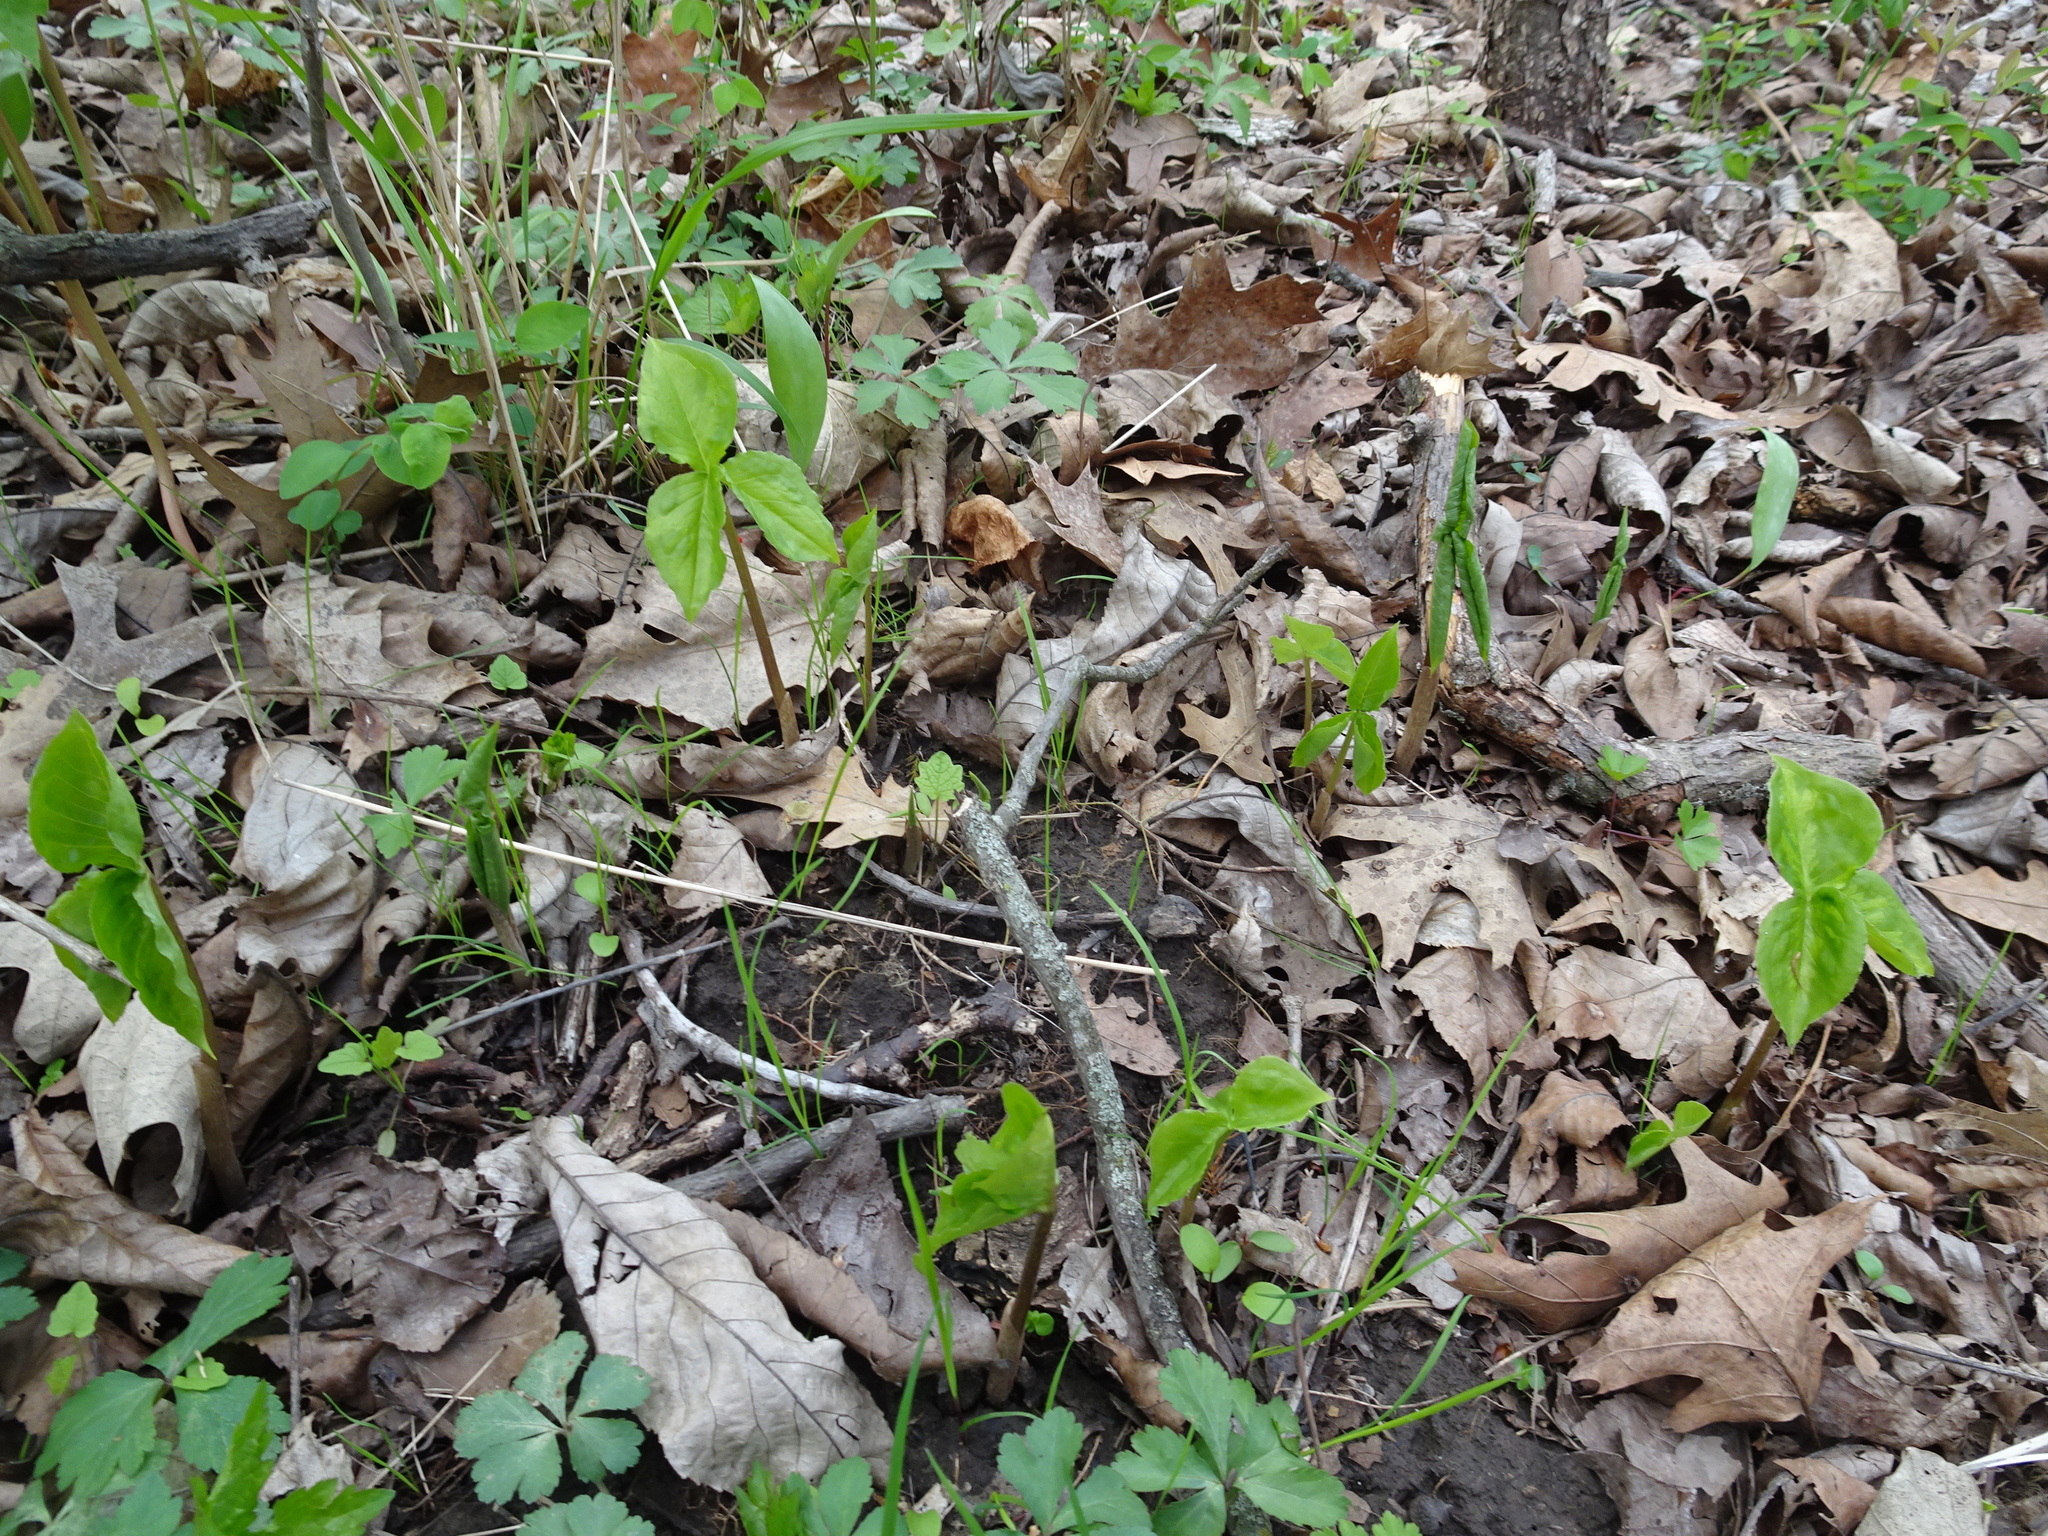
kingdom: Plantae
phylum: Tracheophyta
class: Liliopsida
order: Alismatales
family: Araceae
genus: Arisaema
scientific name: Arisaema triphyllum
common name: Jack-in-the-pulpit
